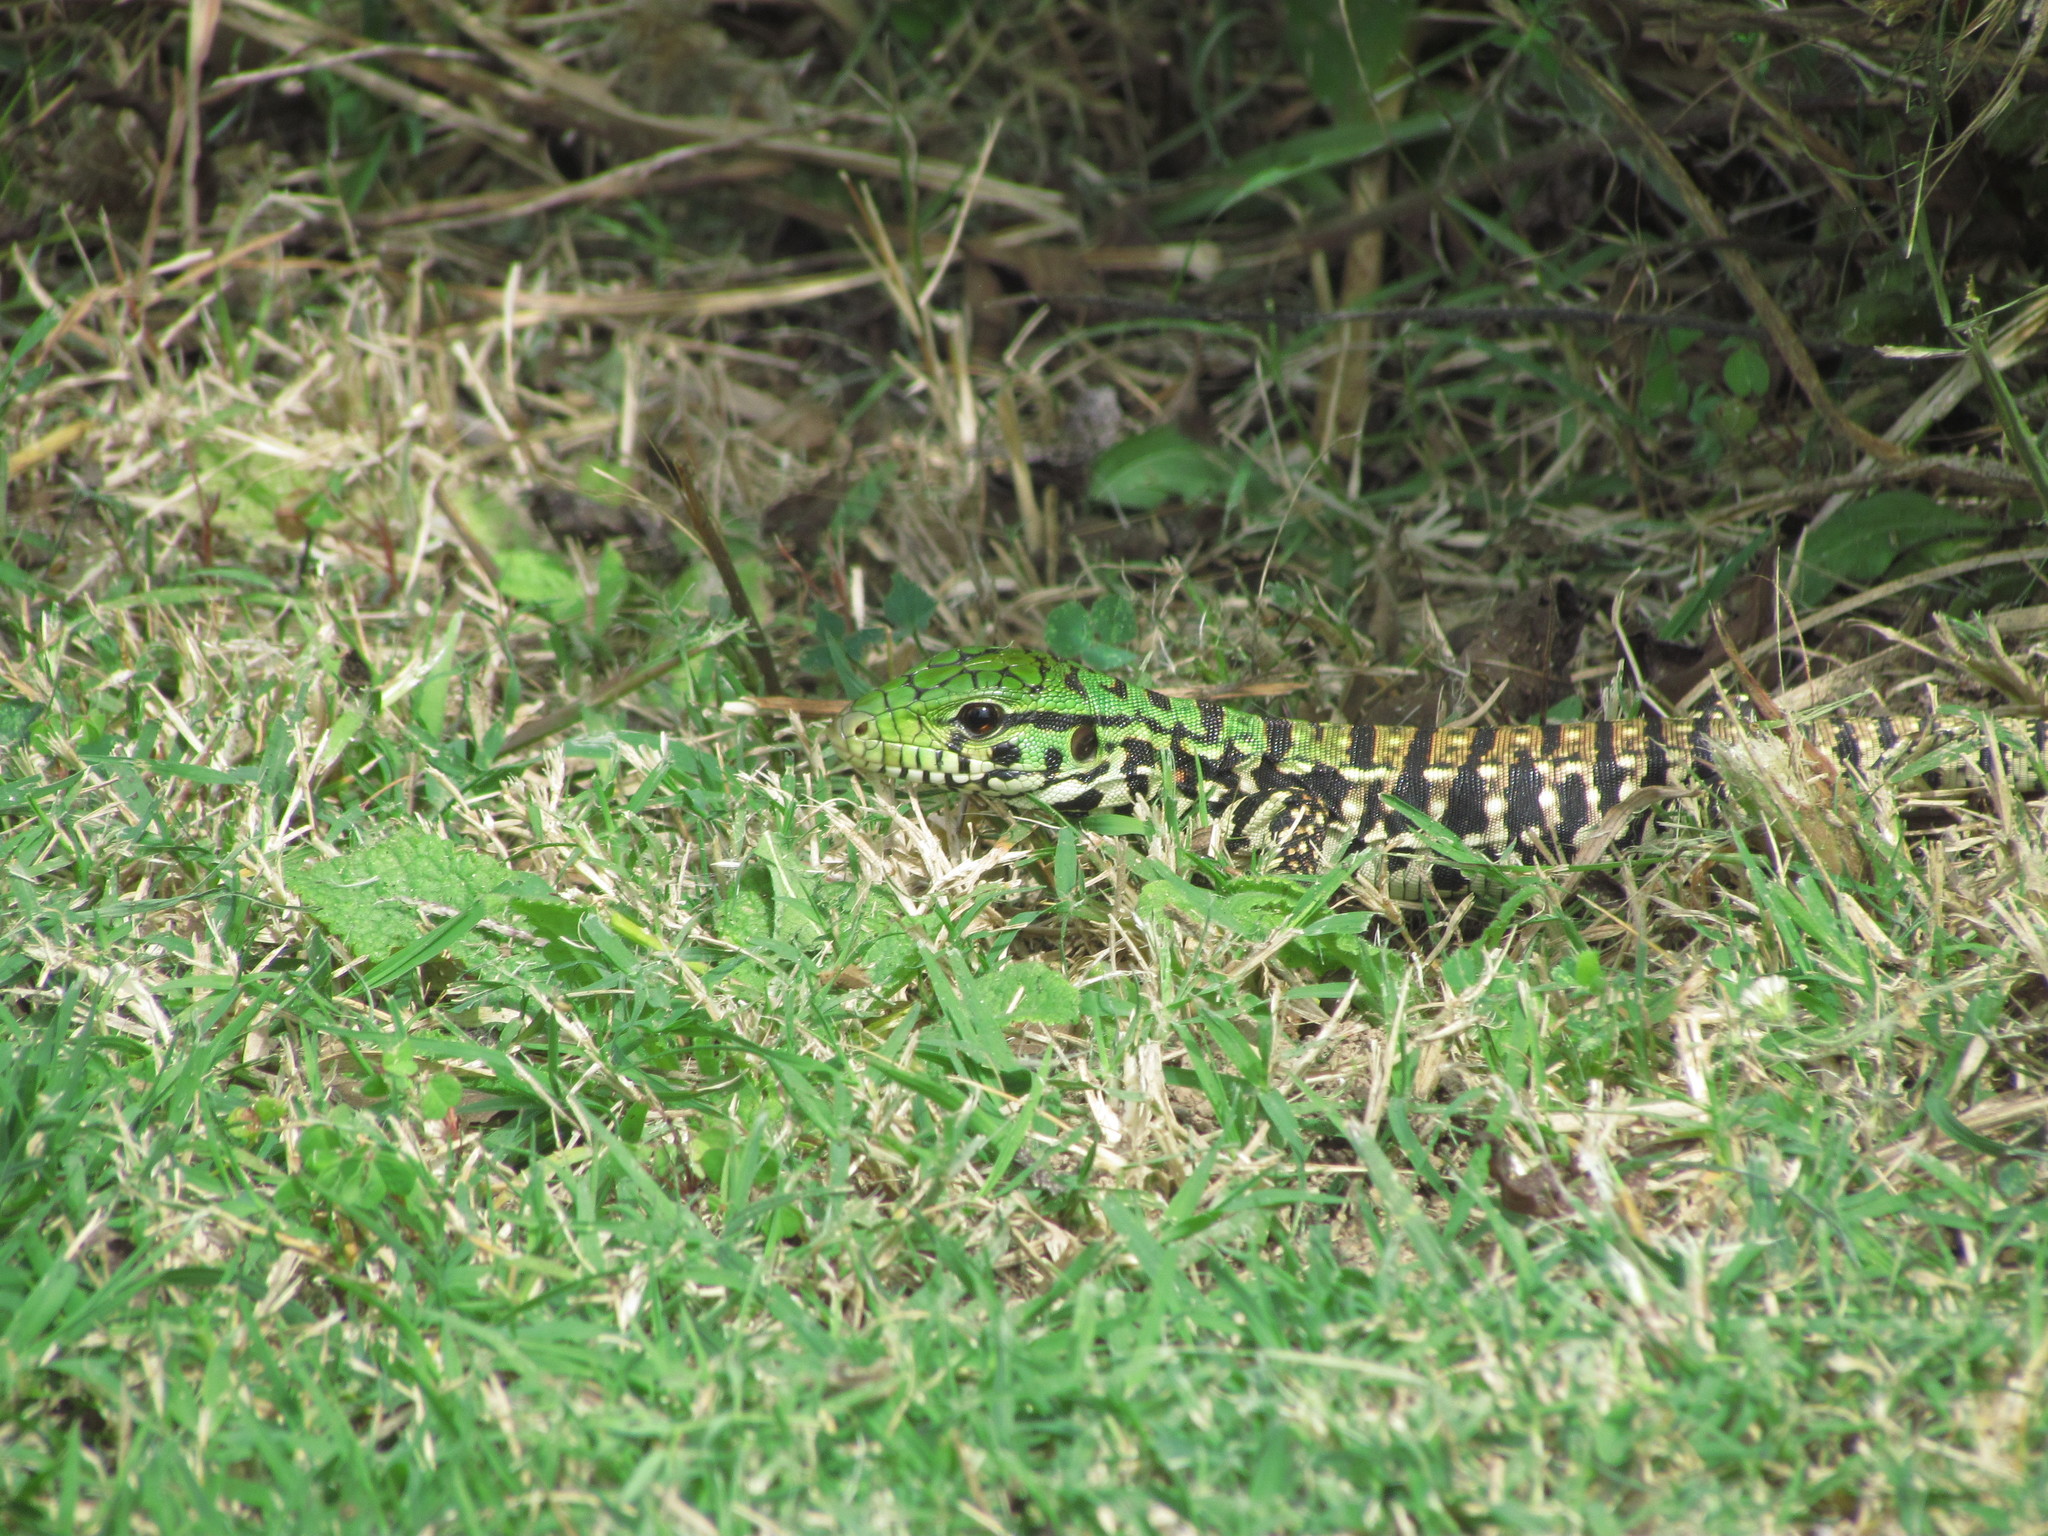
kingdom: Animalia
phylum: Chordata
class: Squamata
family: Teiidae
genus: Salvator
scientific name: Salvator merianae
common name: Argentine black and white tegu
